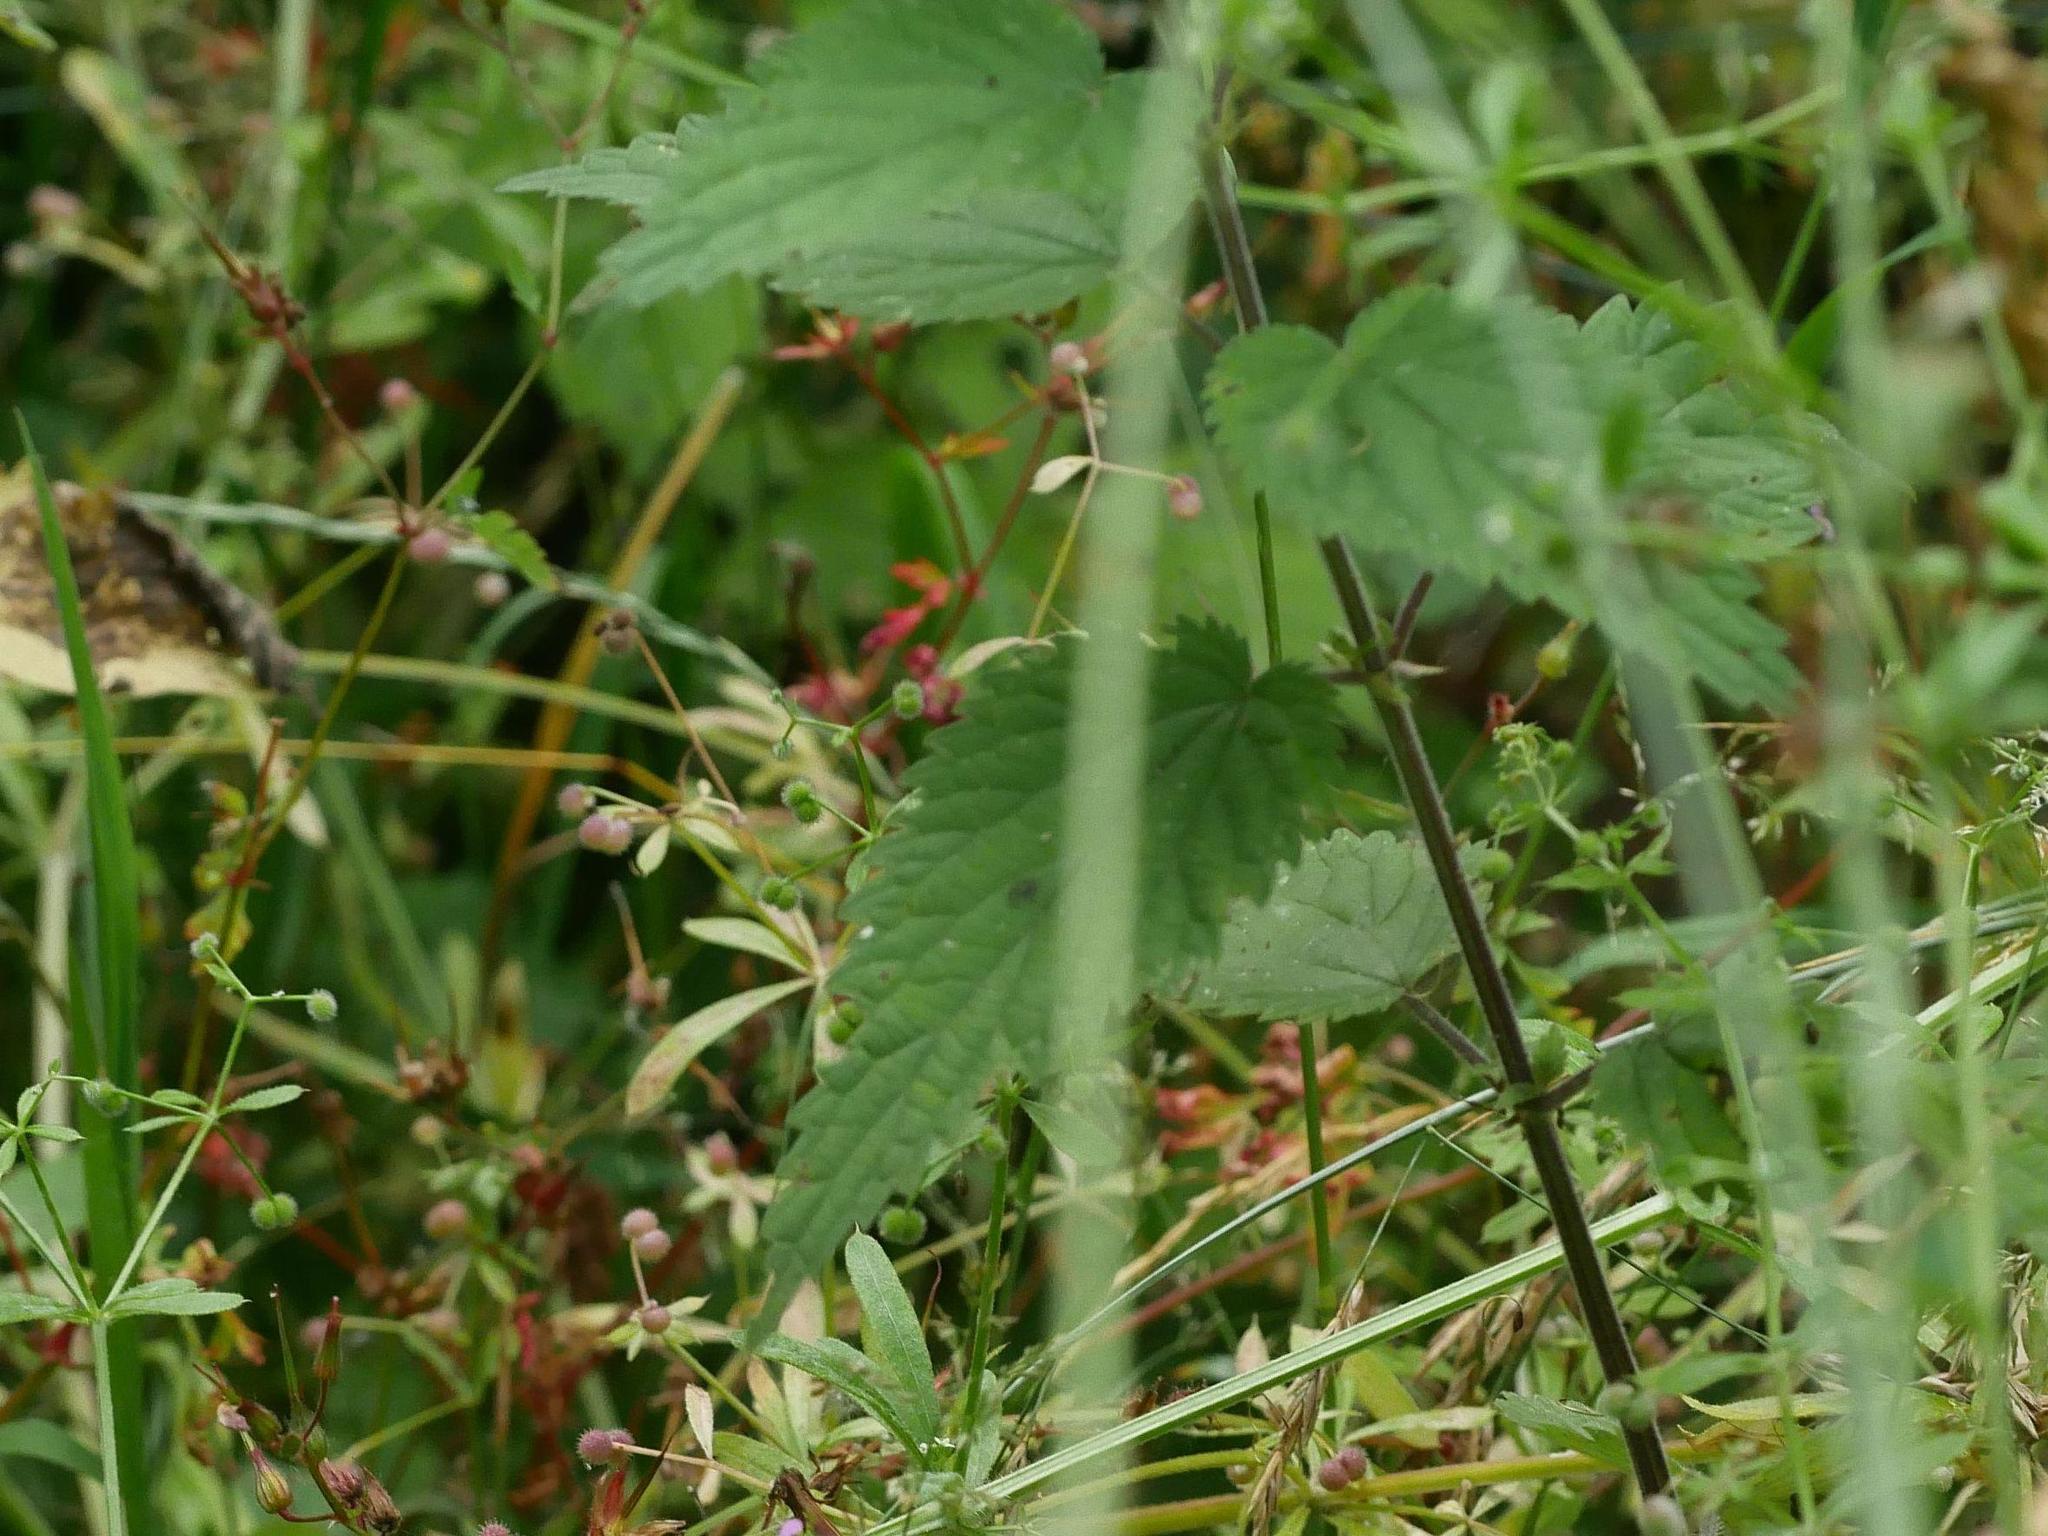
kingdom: Plantae
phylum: Tracheophyta
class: Magnoliopsida
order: Rosales
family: Urticaceae
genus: Urtica
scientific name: Urtica dioica
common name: Common nettle
